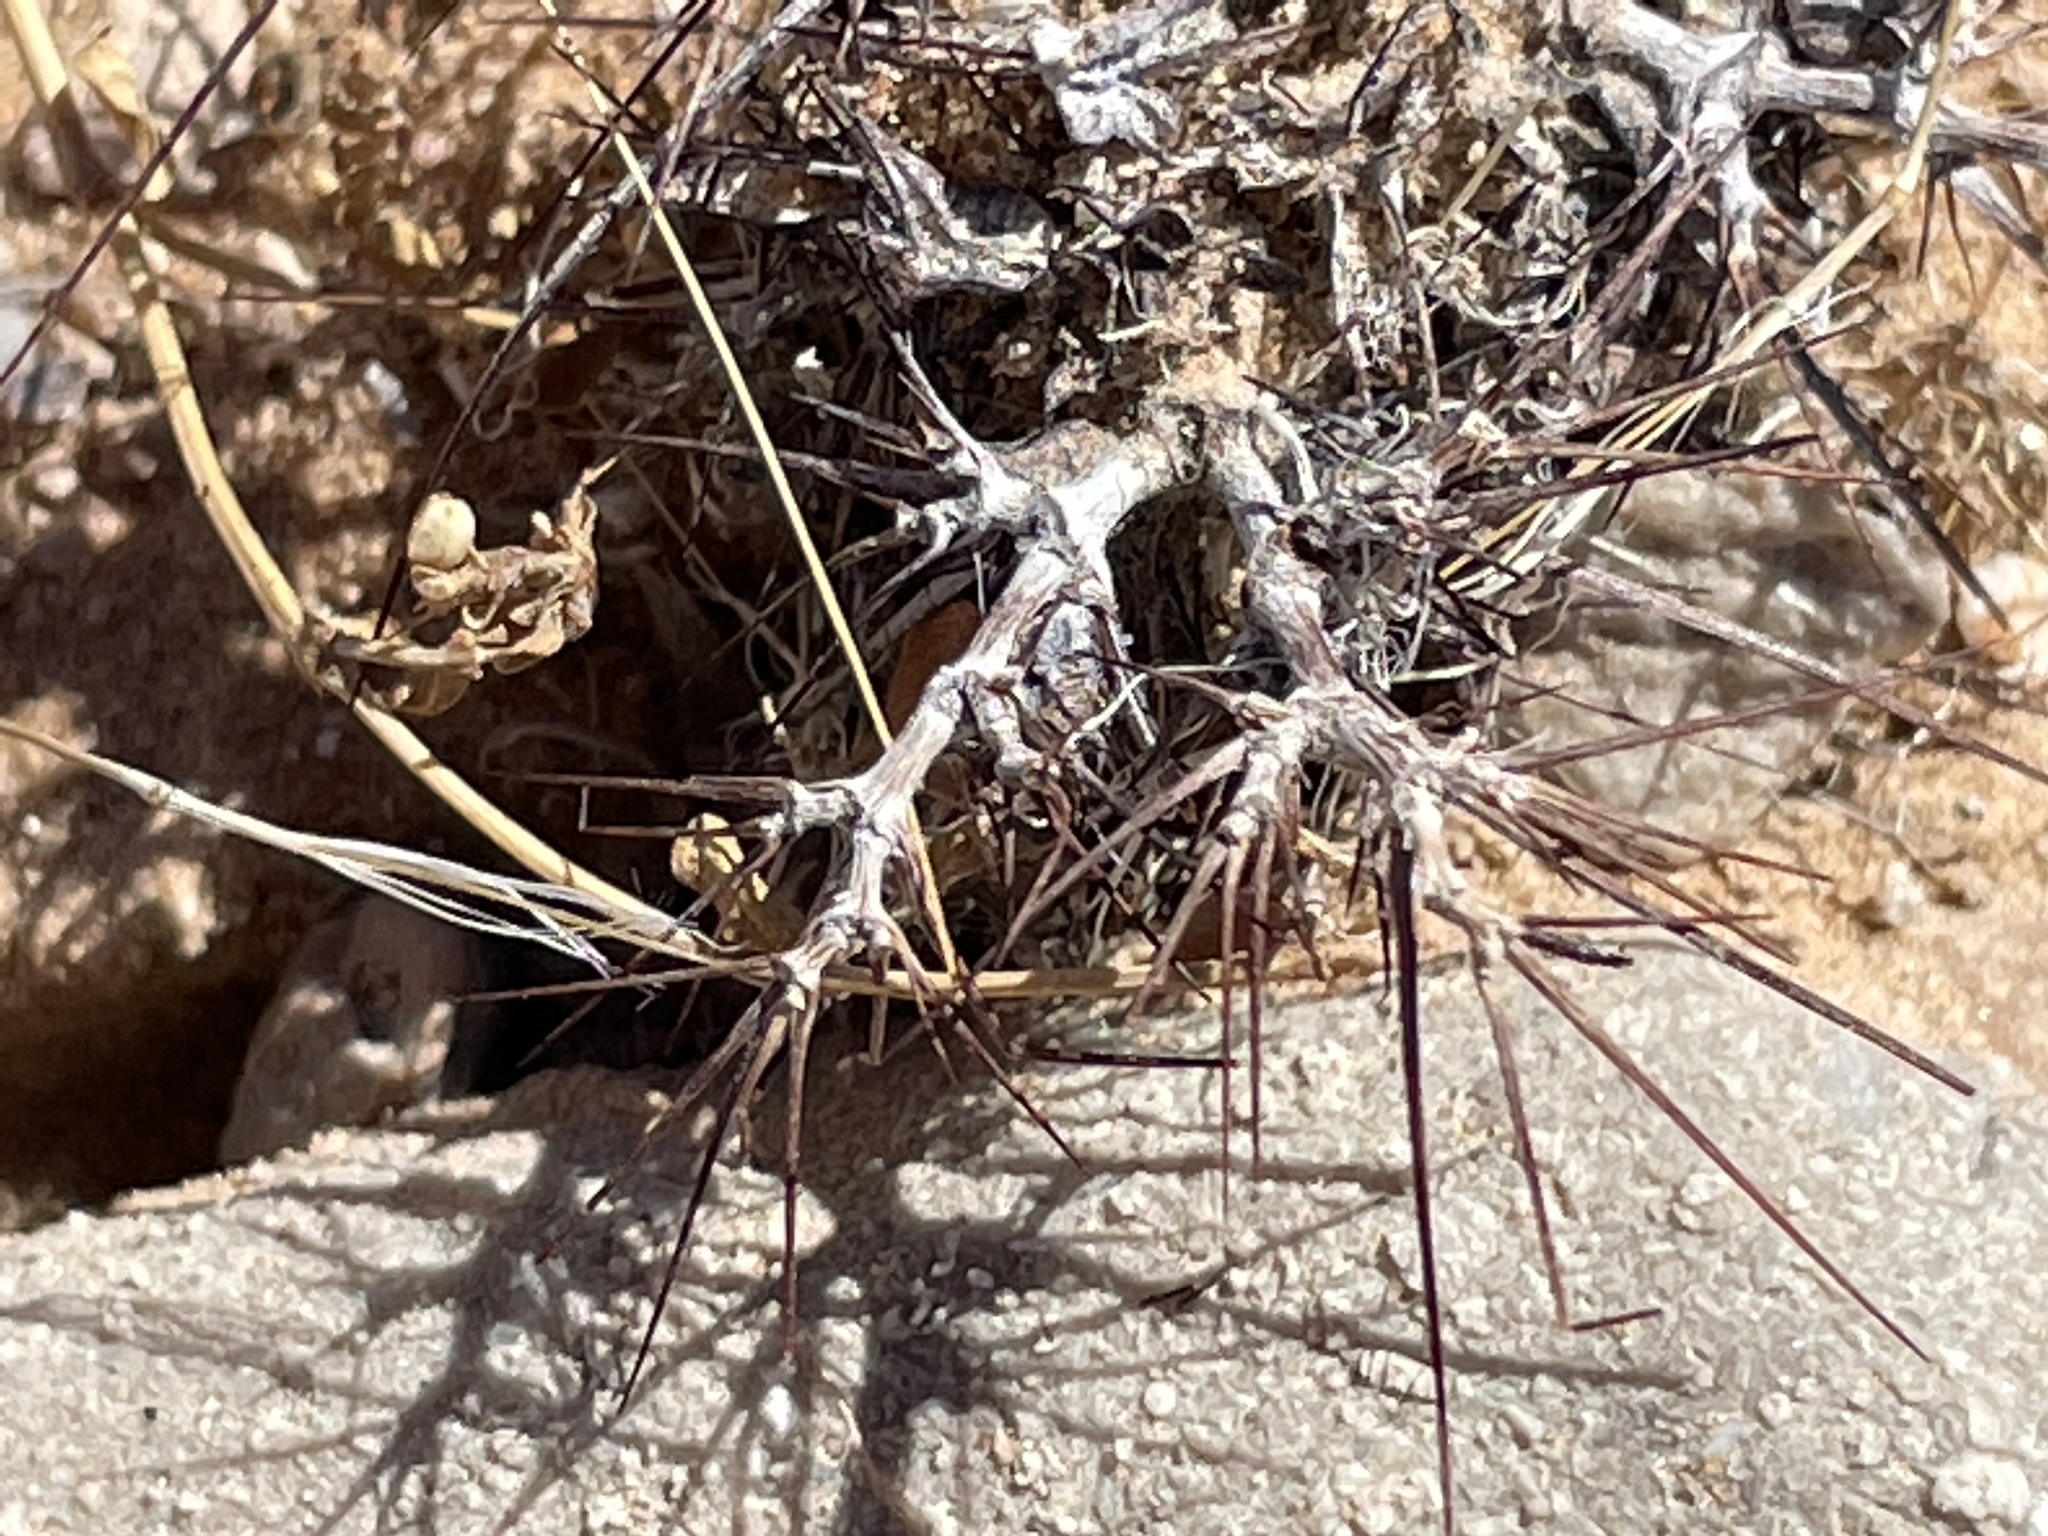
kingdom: Plantae
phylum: Tracheophyta
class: Magnoliopsida
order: Caryophyllales
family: Polygonaceae
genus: Chorizanthe
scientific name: Chorizanthe rigida
